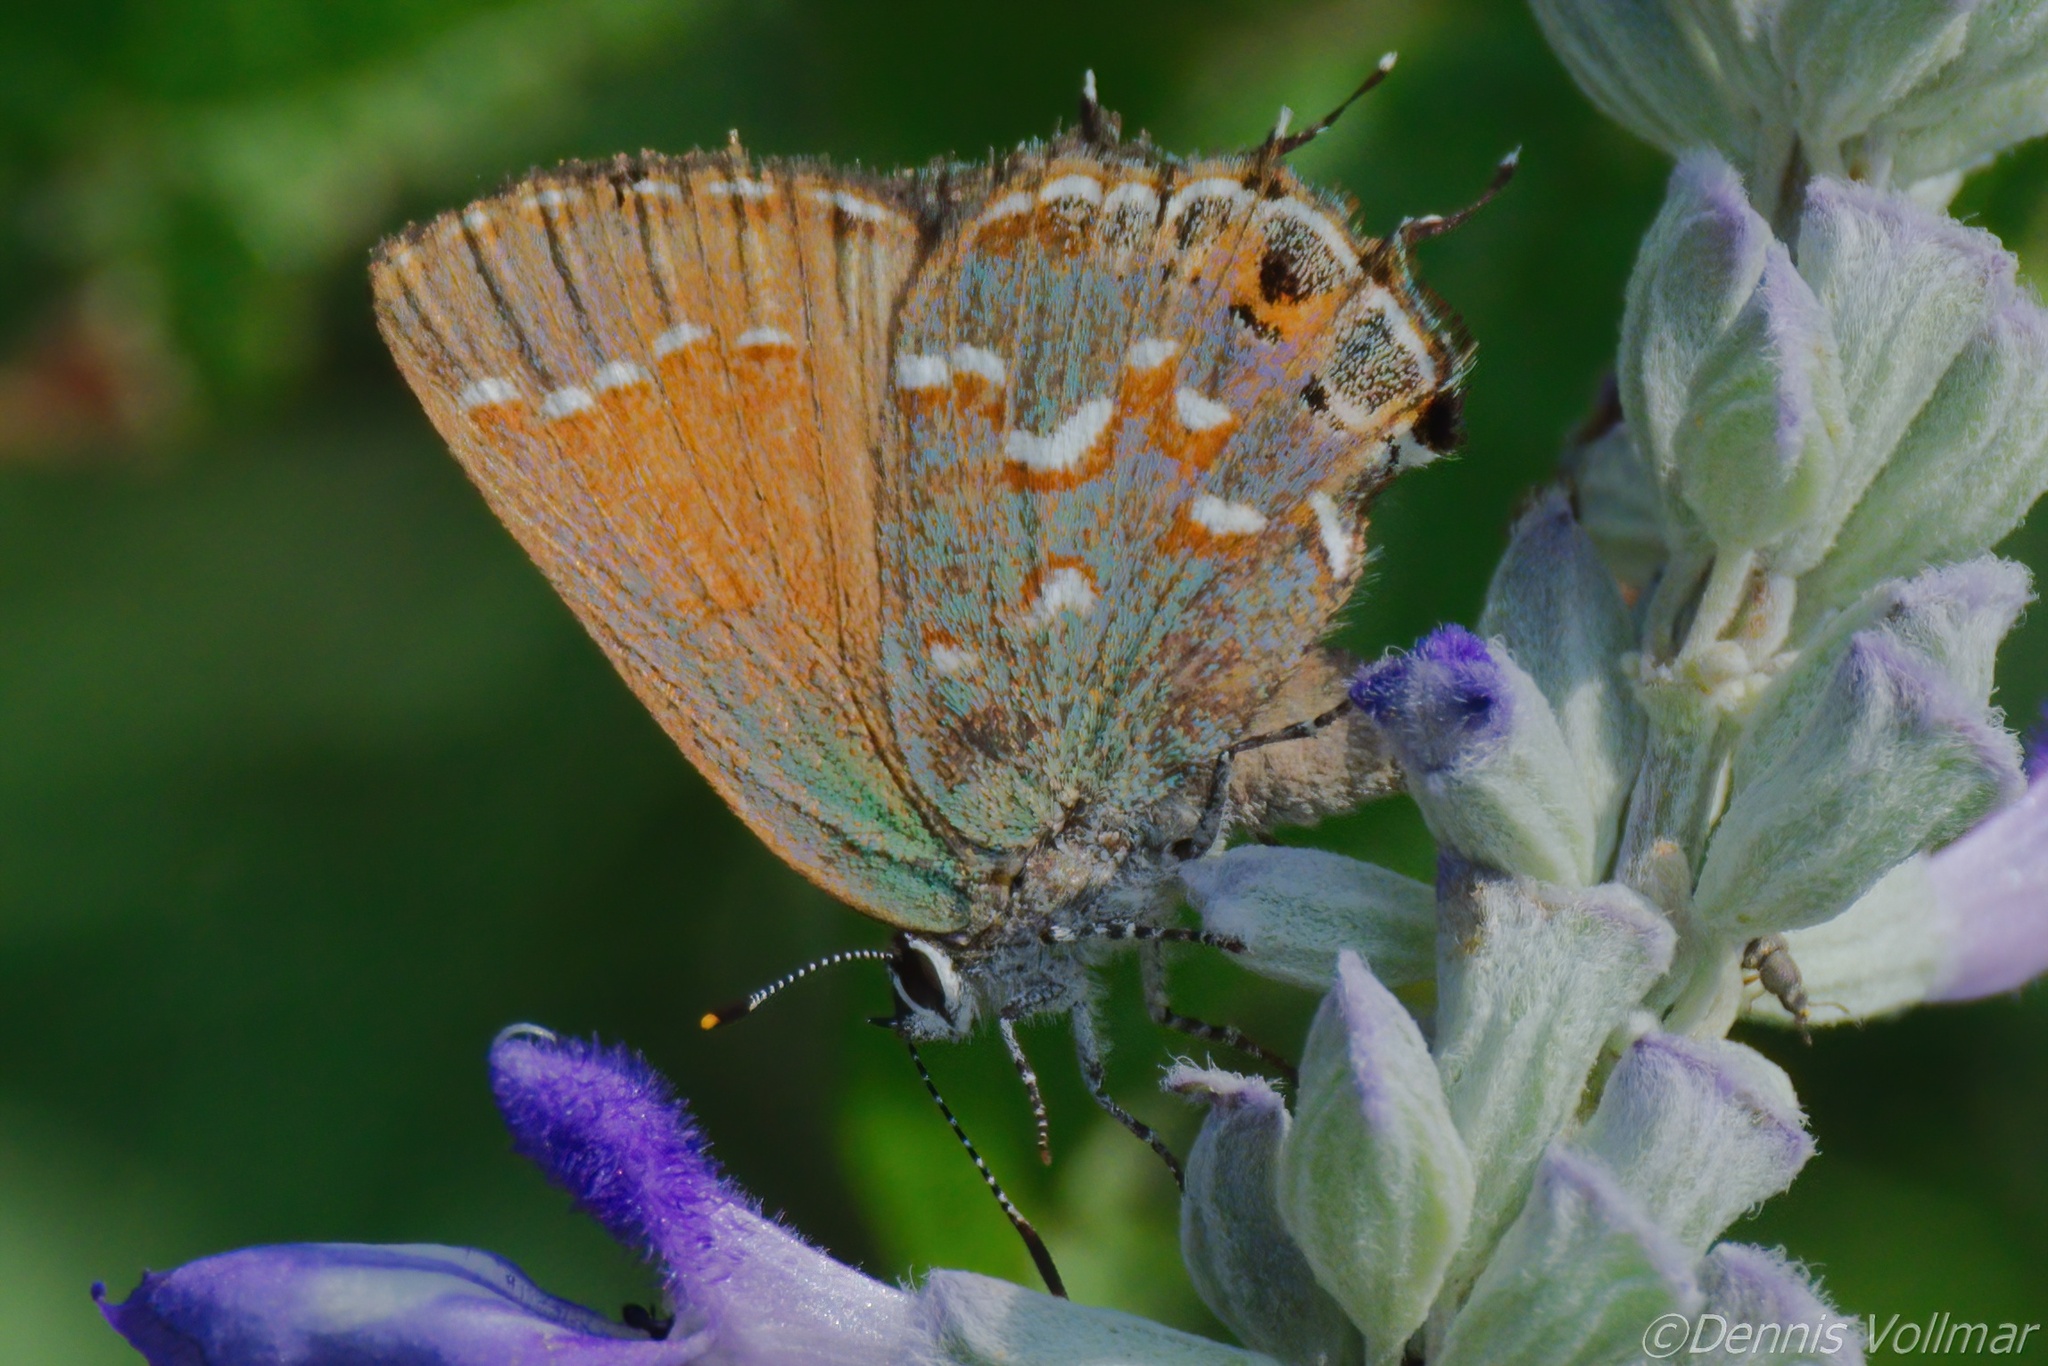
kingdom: Animalia
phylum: Arthropoda
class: Insecta
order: Lepidoptera
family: Lycaenidae
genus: Mitoura
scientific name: Mitoura gryneus
